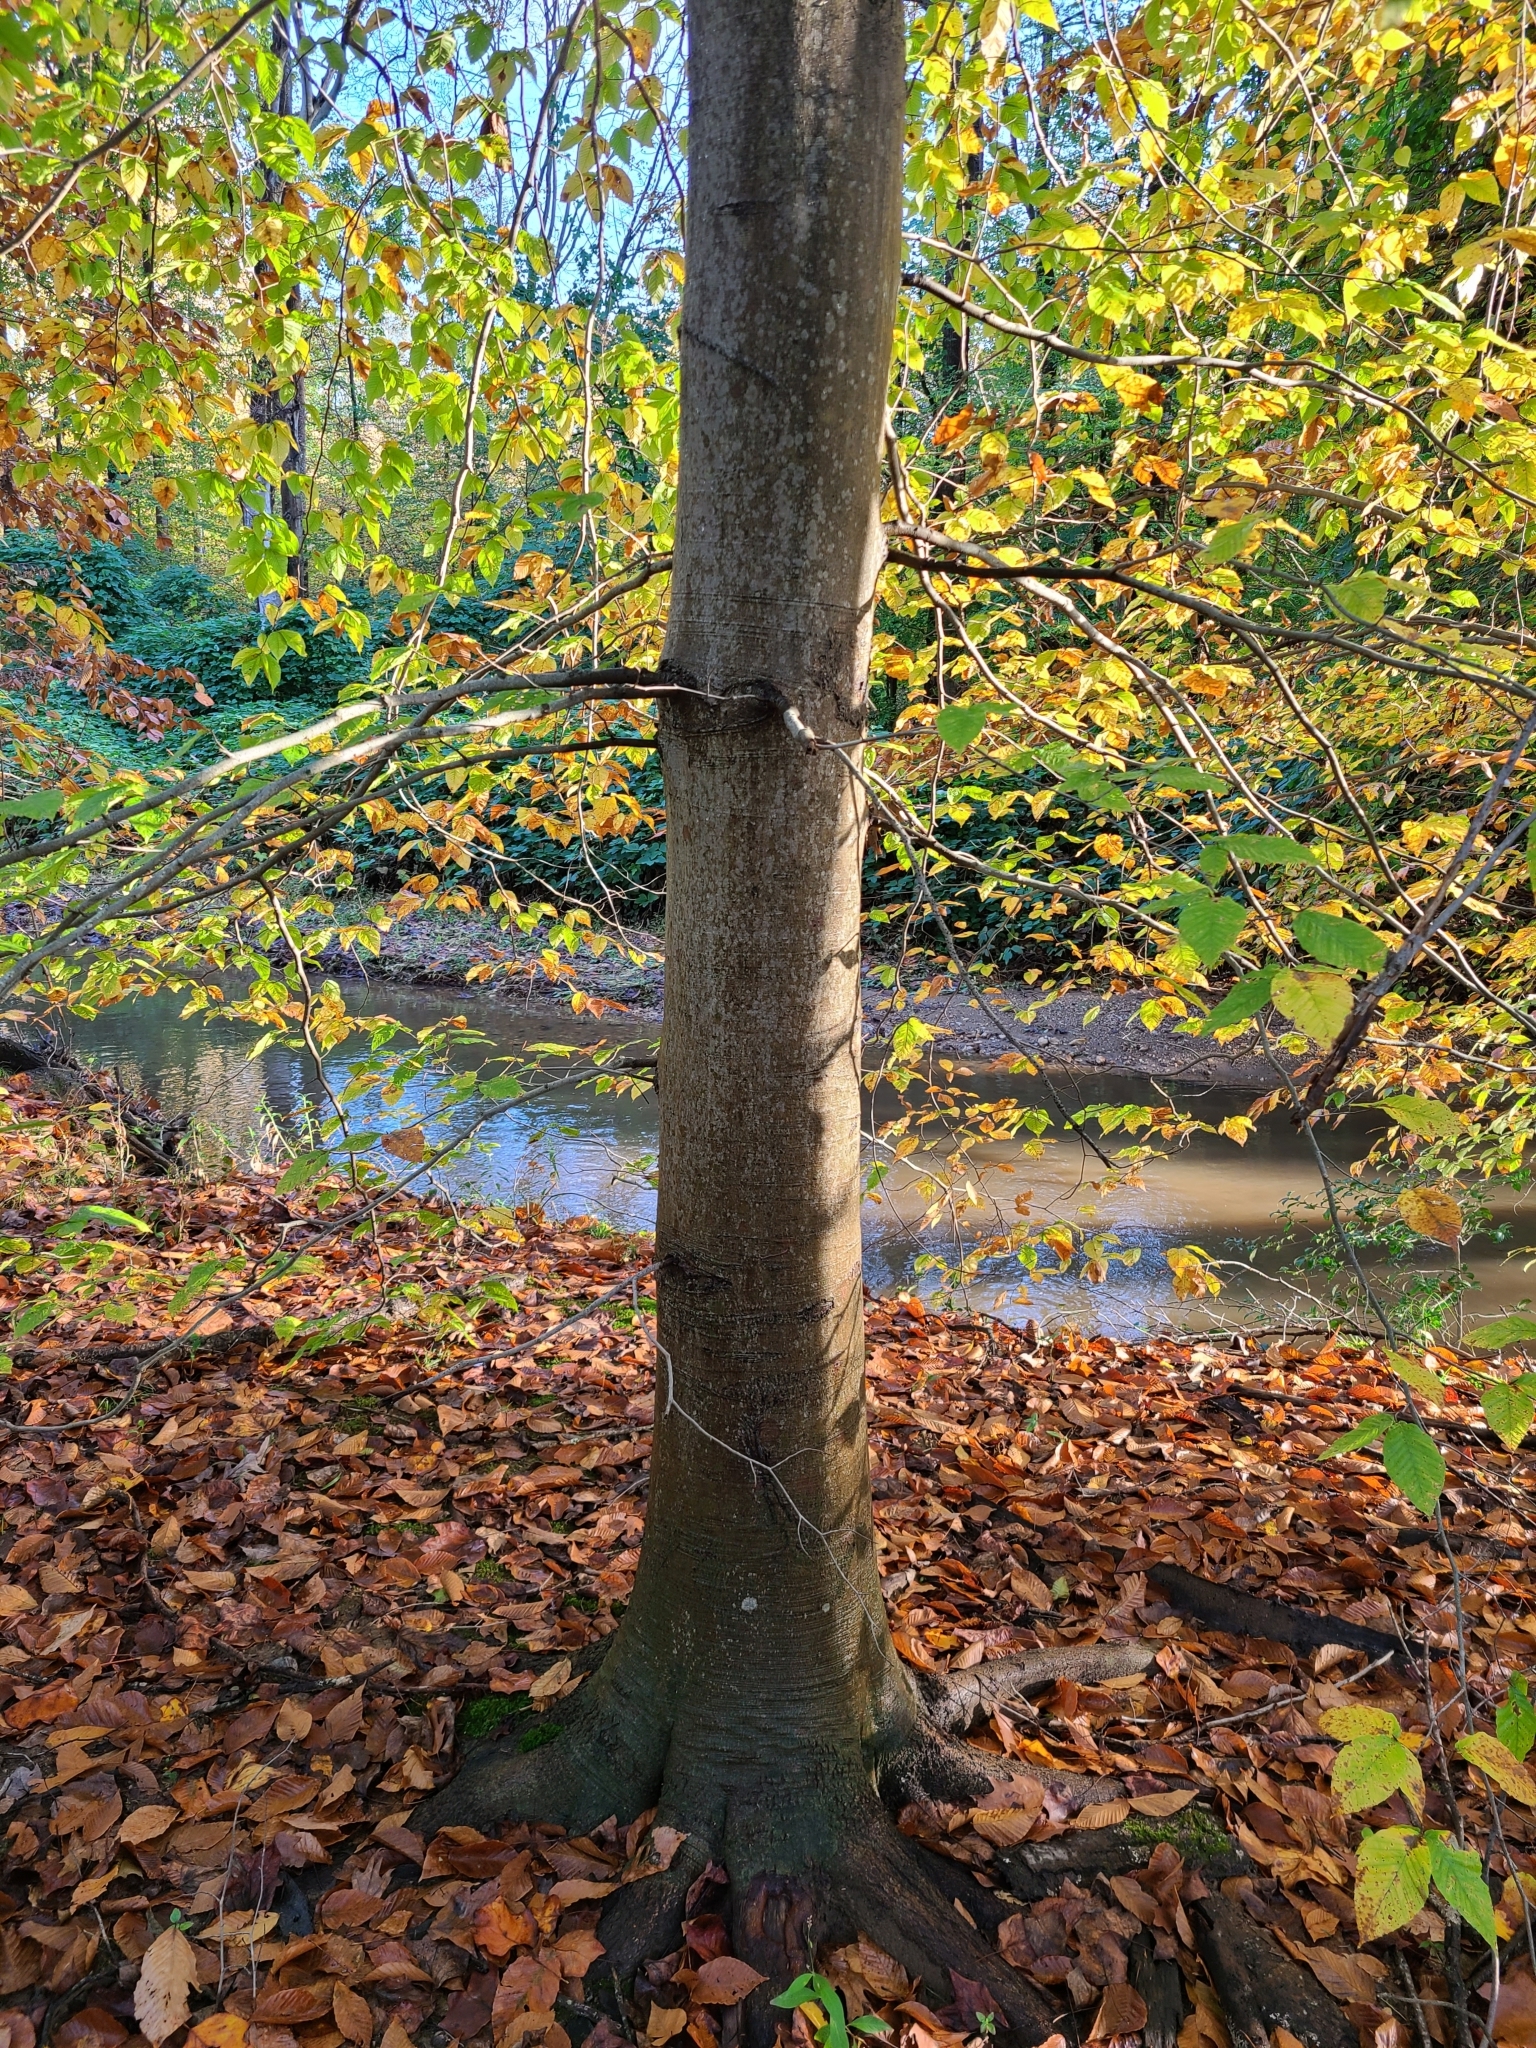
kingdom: Plantae
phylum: Tracheophyta
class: Magnoliopsida
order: Fagales
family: Fagaceae
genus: Fagus
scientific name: Fagus grandifolia
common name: American beech
